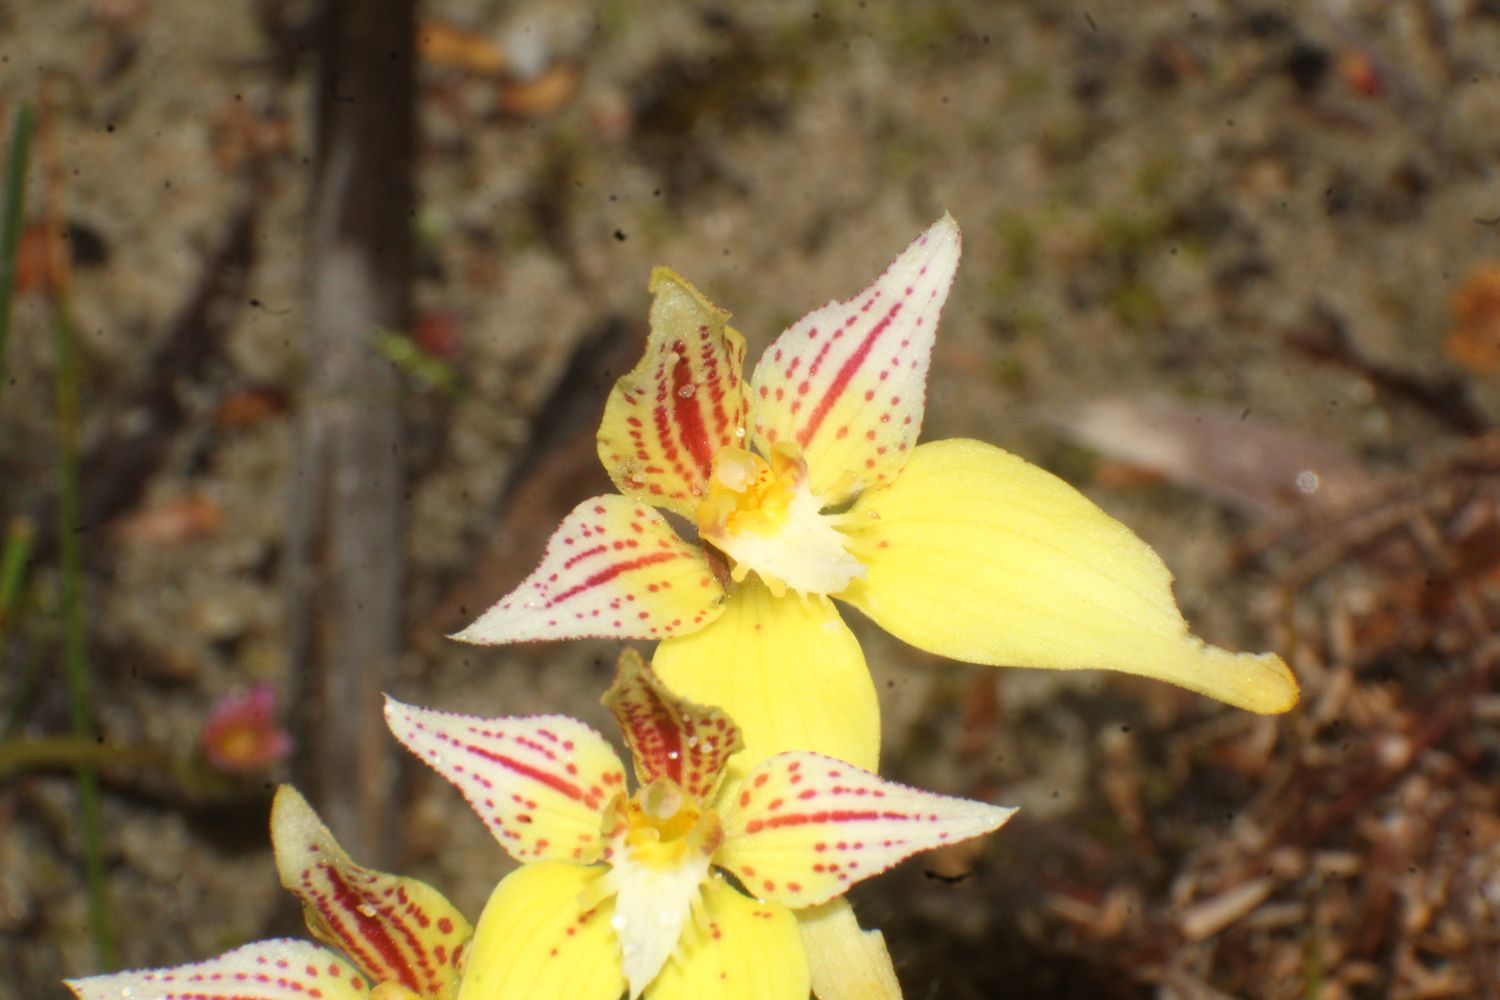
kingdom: Plantae
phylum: Tracheophyta
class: Liliopsida
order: Asparagales
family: Orchidaceae
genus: Caladenia
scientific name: Caladenia flava
